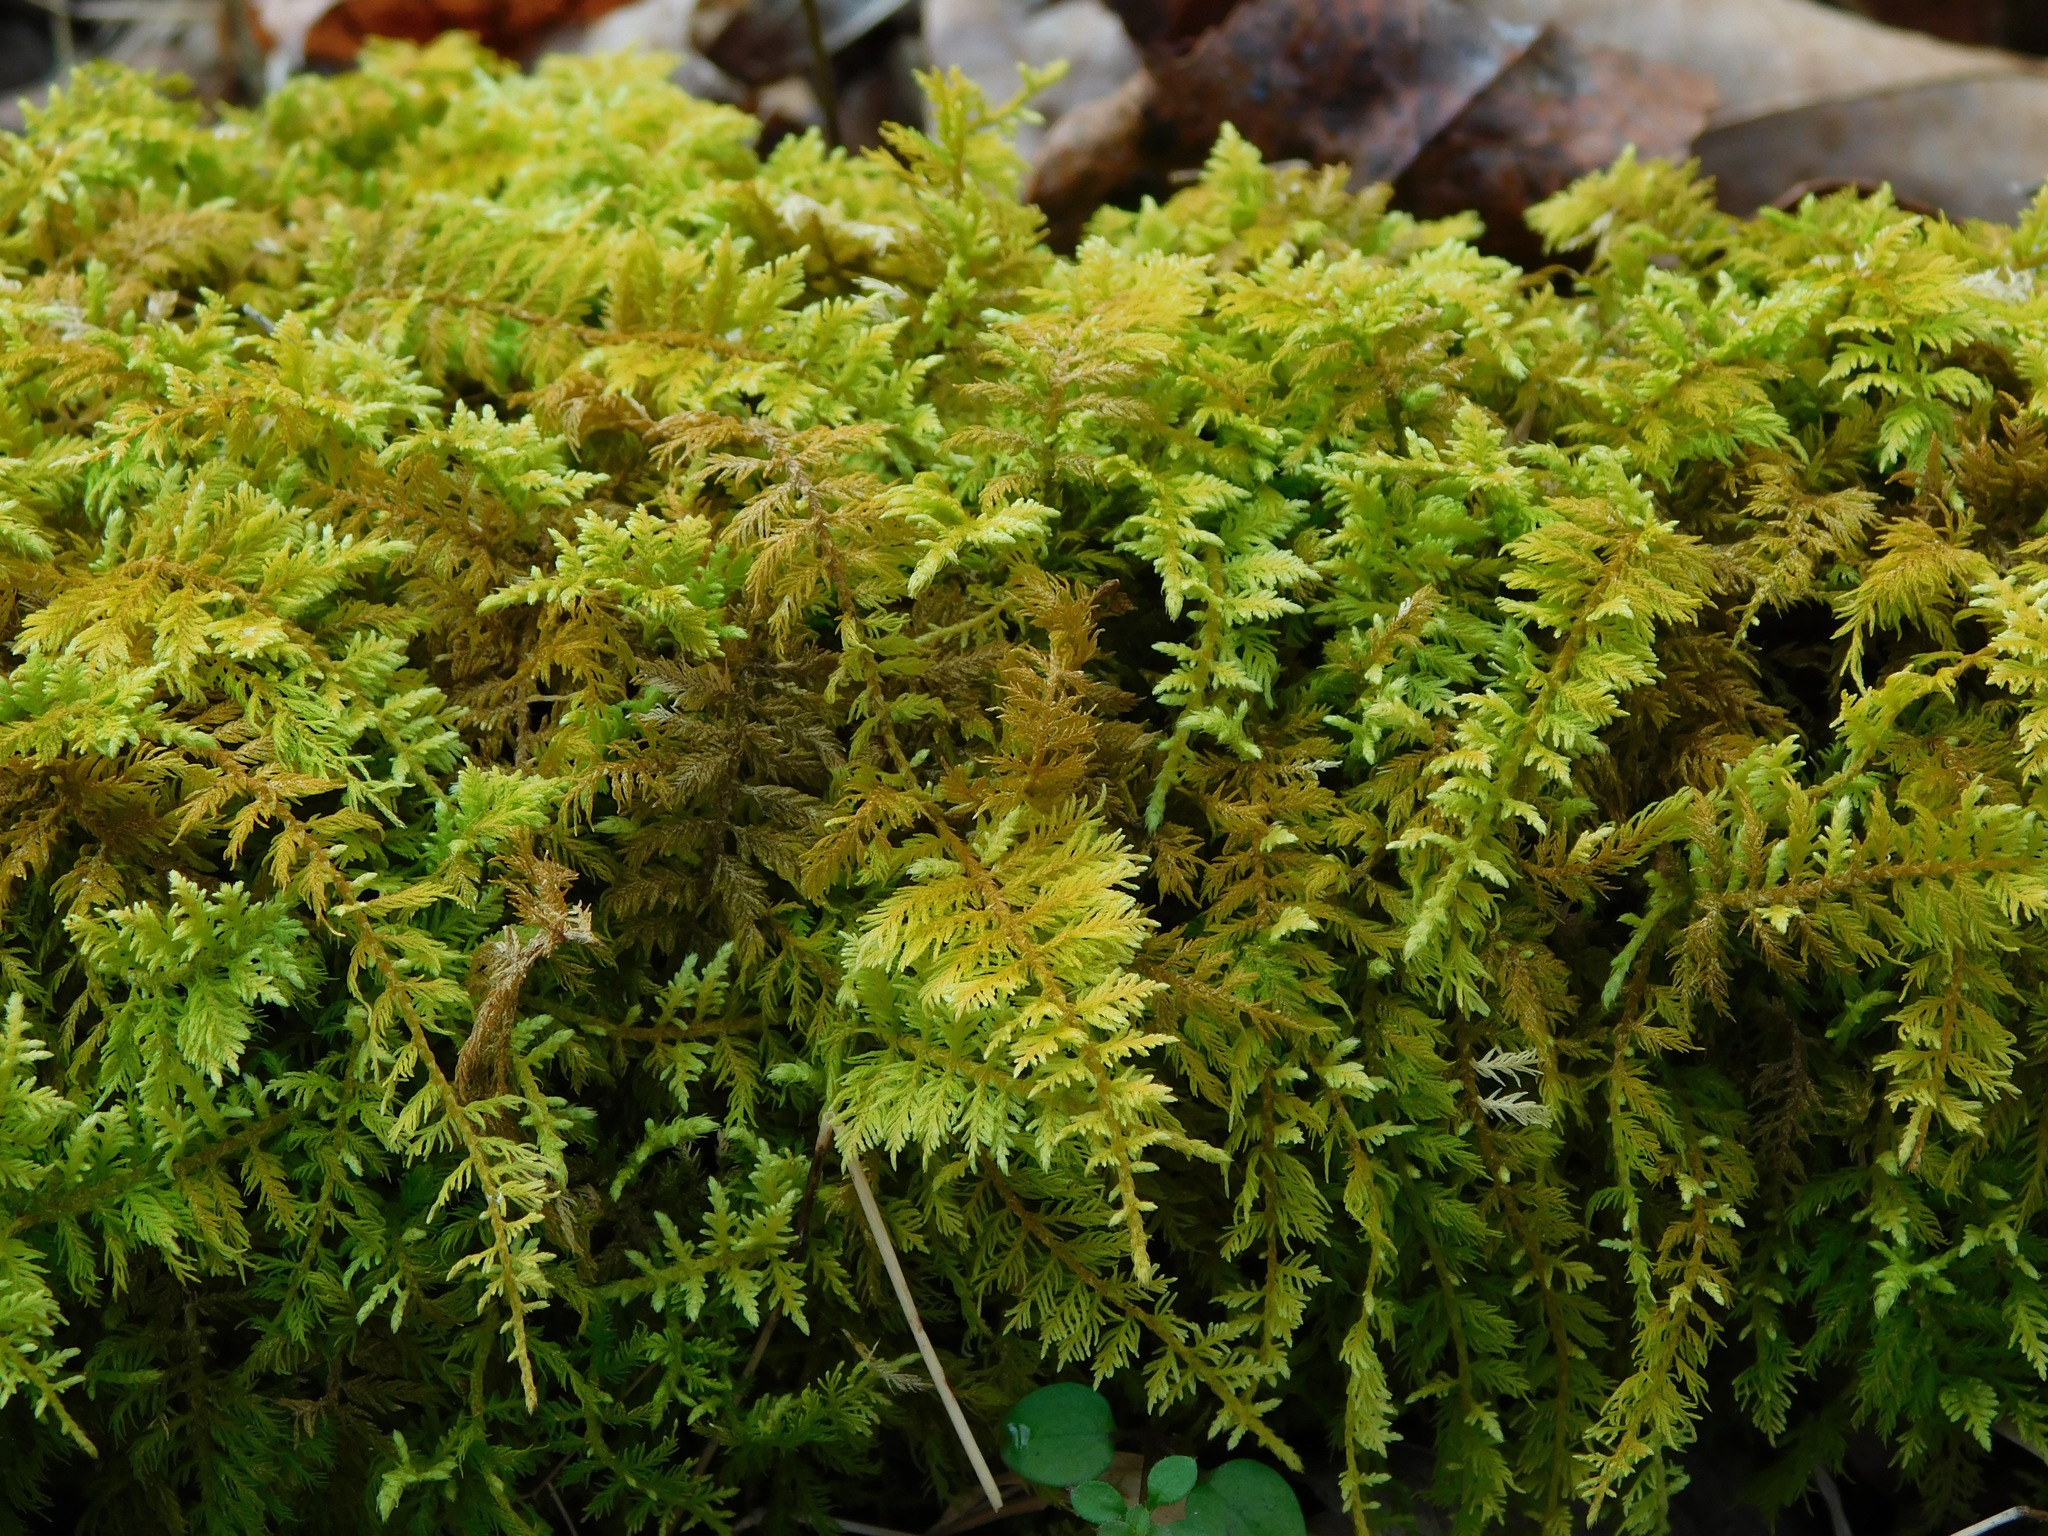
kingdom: Plantae
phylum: Bryophyta
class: Bryopsida
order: Hypnales
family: Thuidiaceae
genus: Thuidium
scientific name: Thuidium delicatulum
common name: Delicate fern moss
